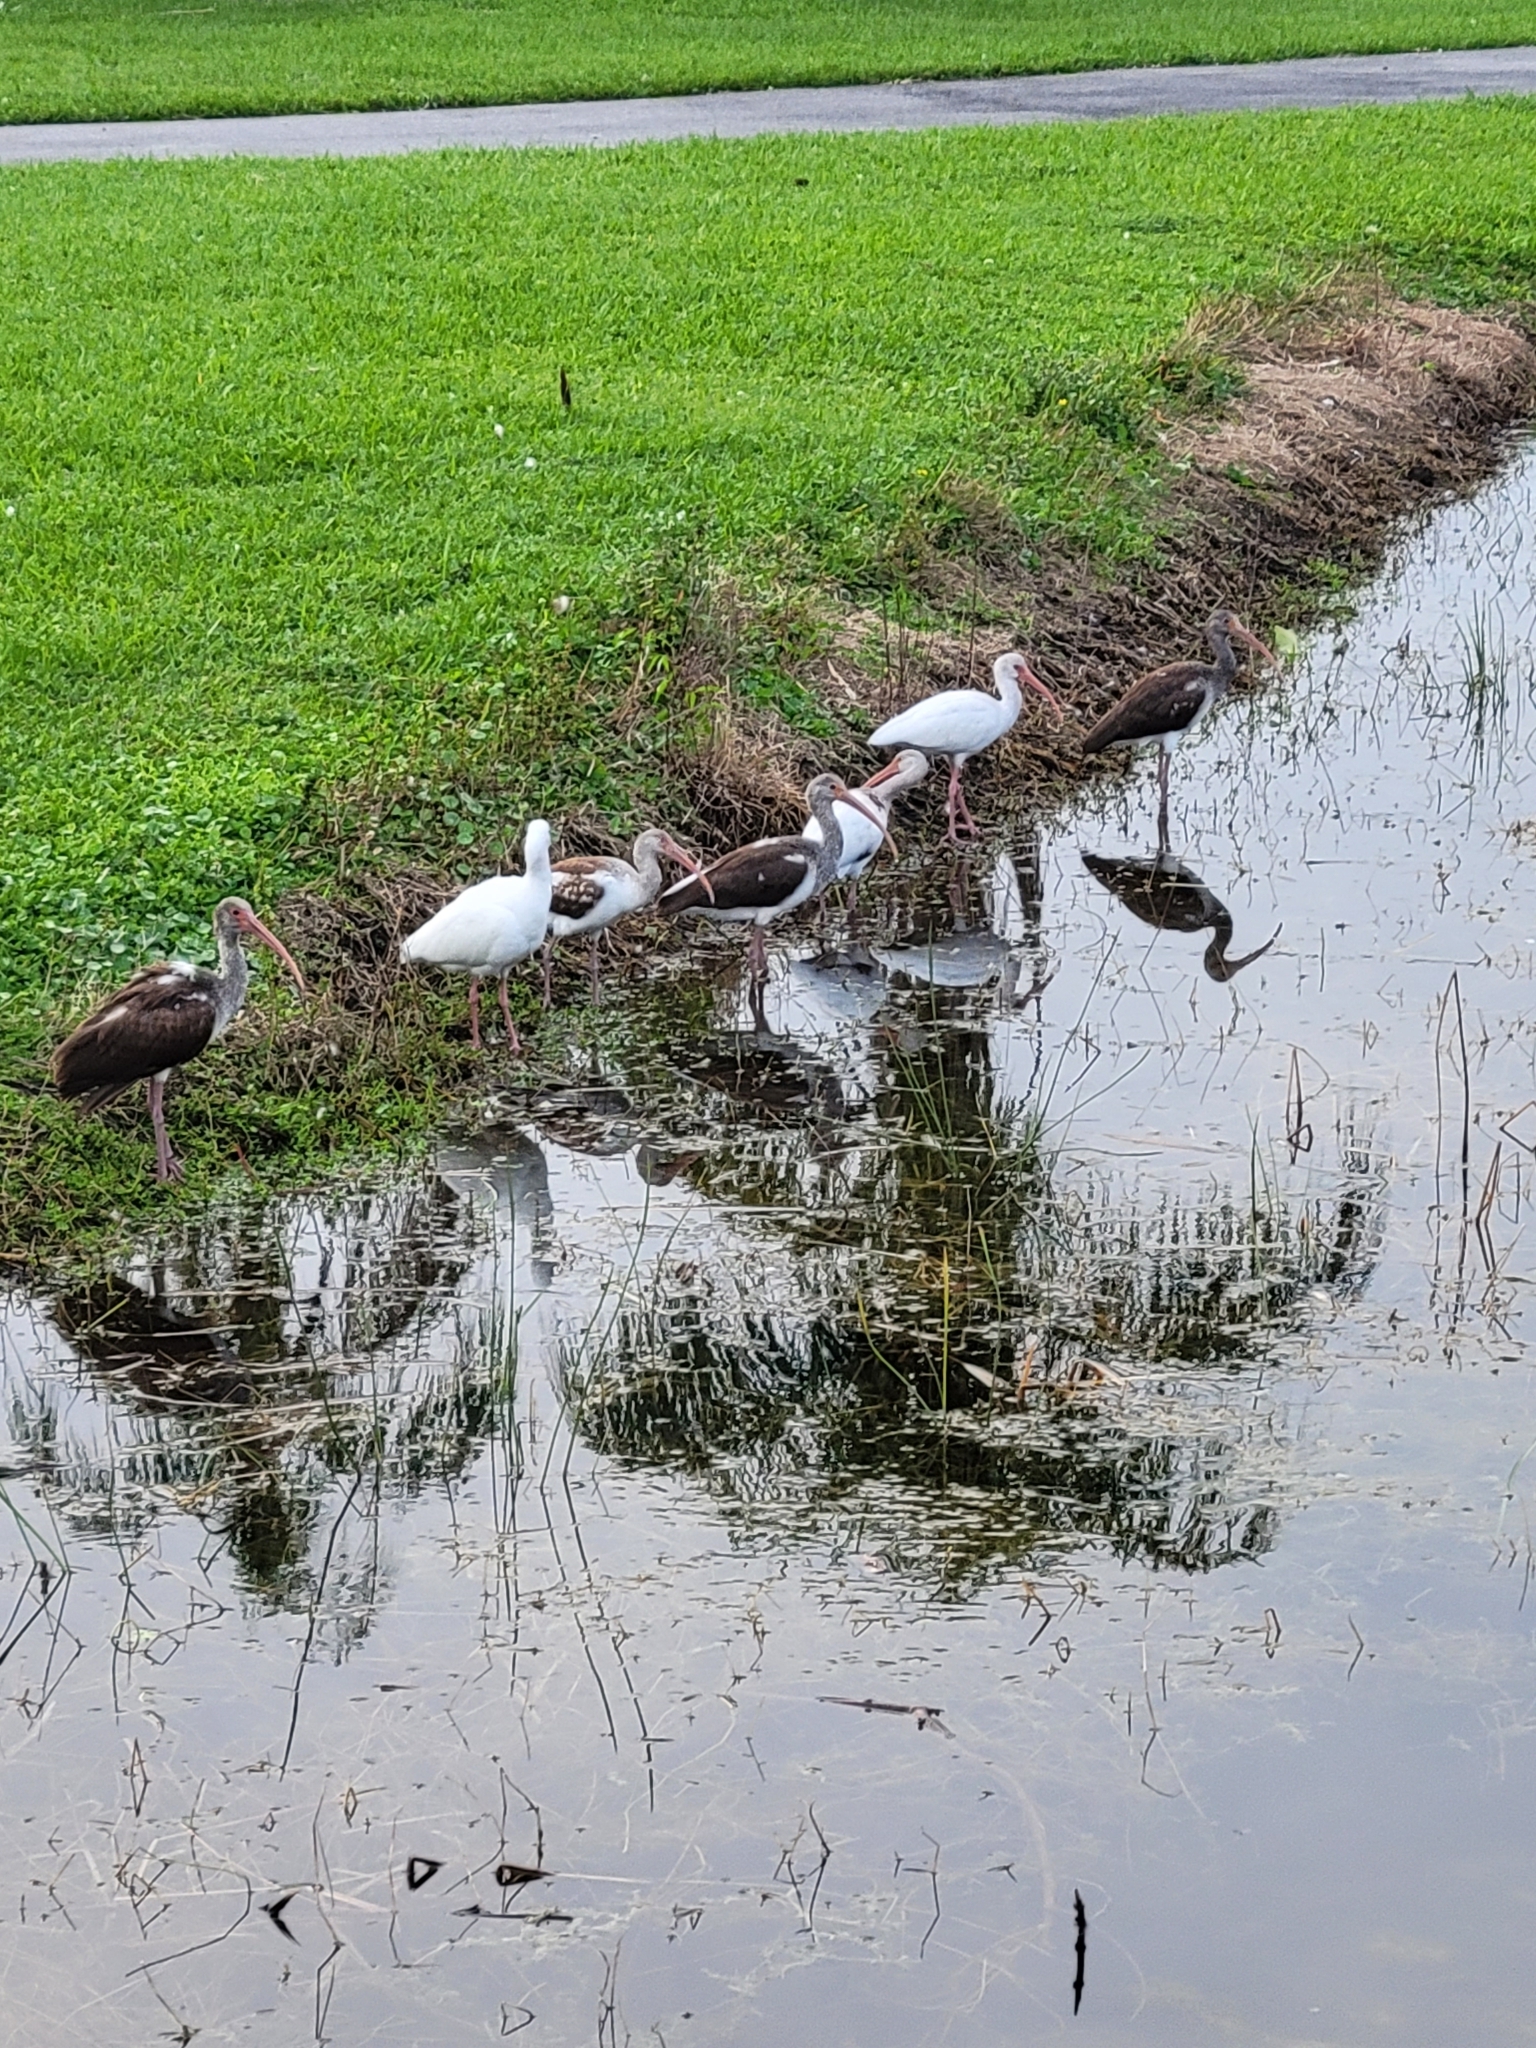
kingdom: Animalia
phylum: Chordata
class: Aves
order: Pelecaniformes
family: Threskiornithidae
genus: Eudocimus
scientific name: Eudocimus albus
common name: White ibis
